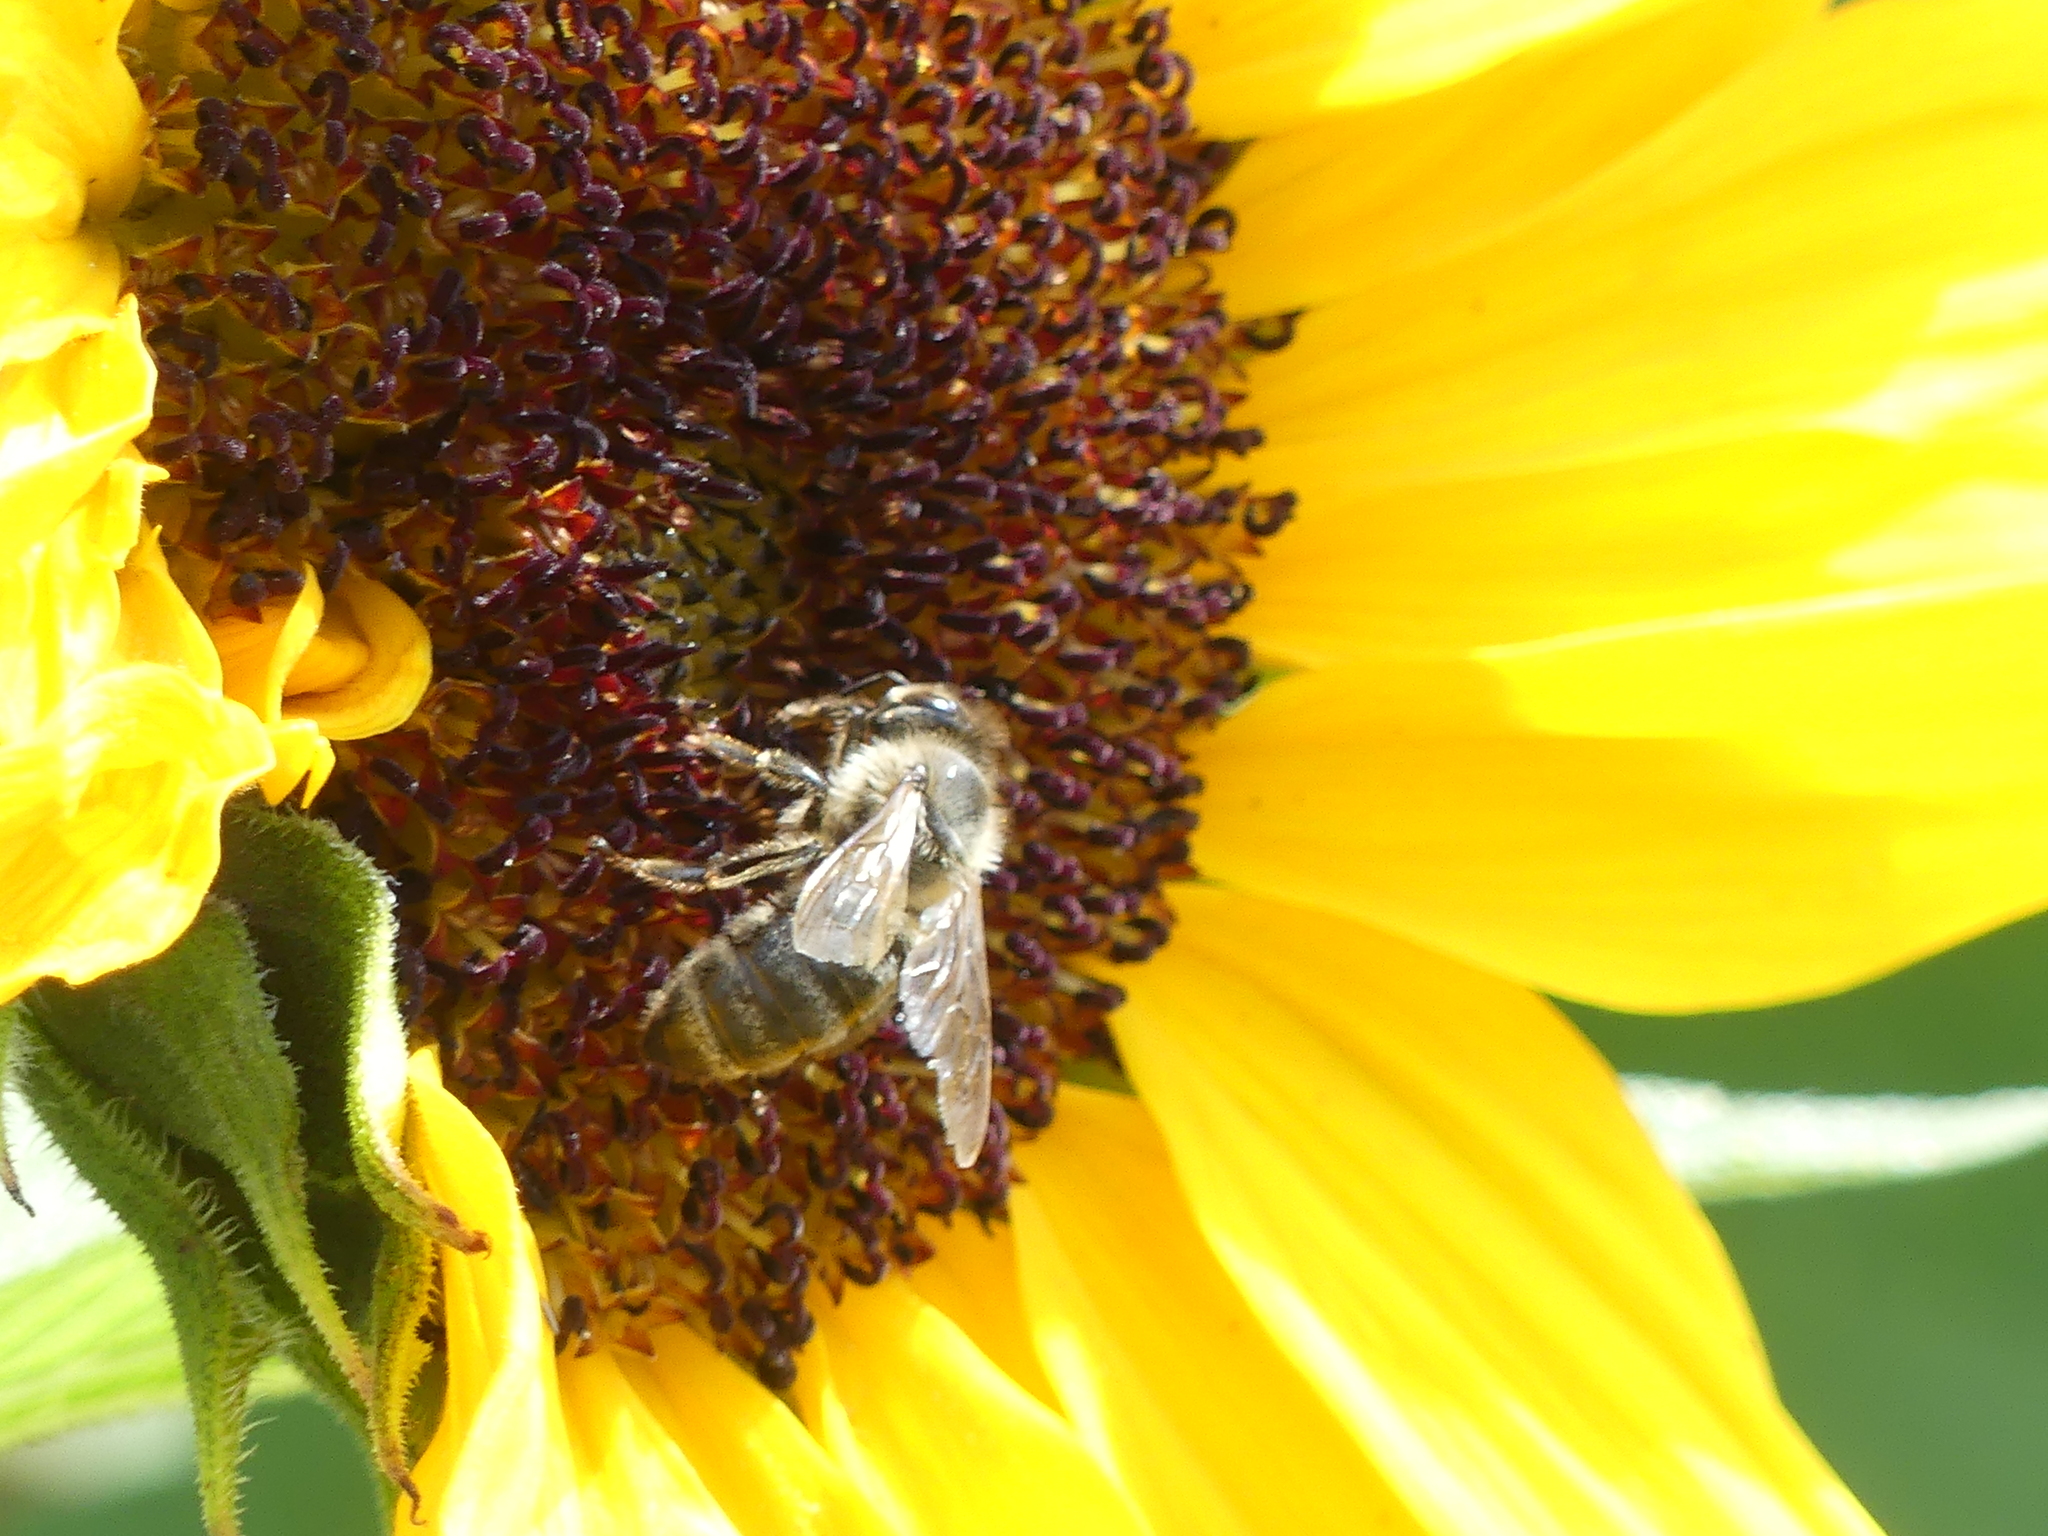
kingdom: Animalia
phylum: Arthropoda
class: Insecta
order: Hymenoptera
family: Apidae
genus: Apis
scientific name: Apis mellifera
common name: Honey bee
